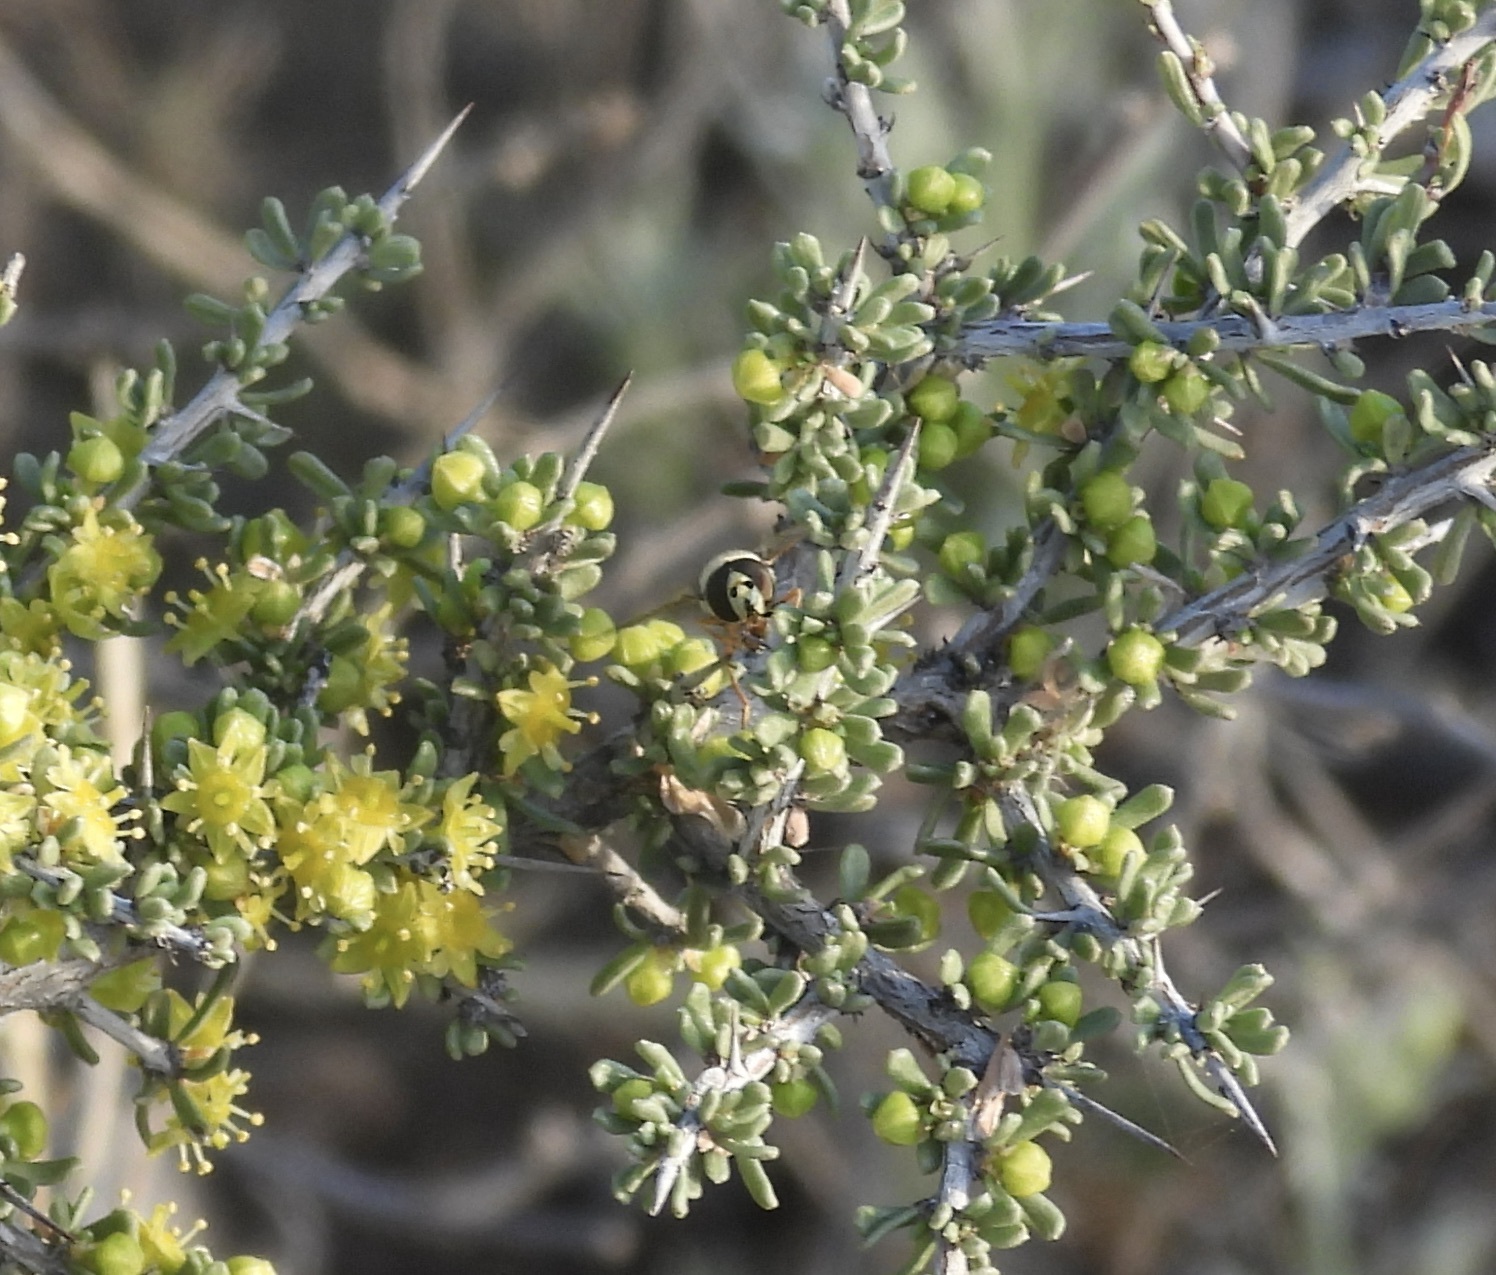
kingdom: Animalia
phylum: Arthropoda
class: Insecta
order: Diptera
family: Syrphidae
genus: Eupeodes
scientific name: Eupeodes volucris
